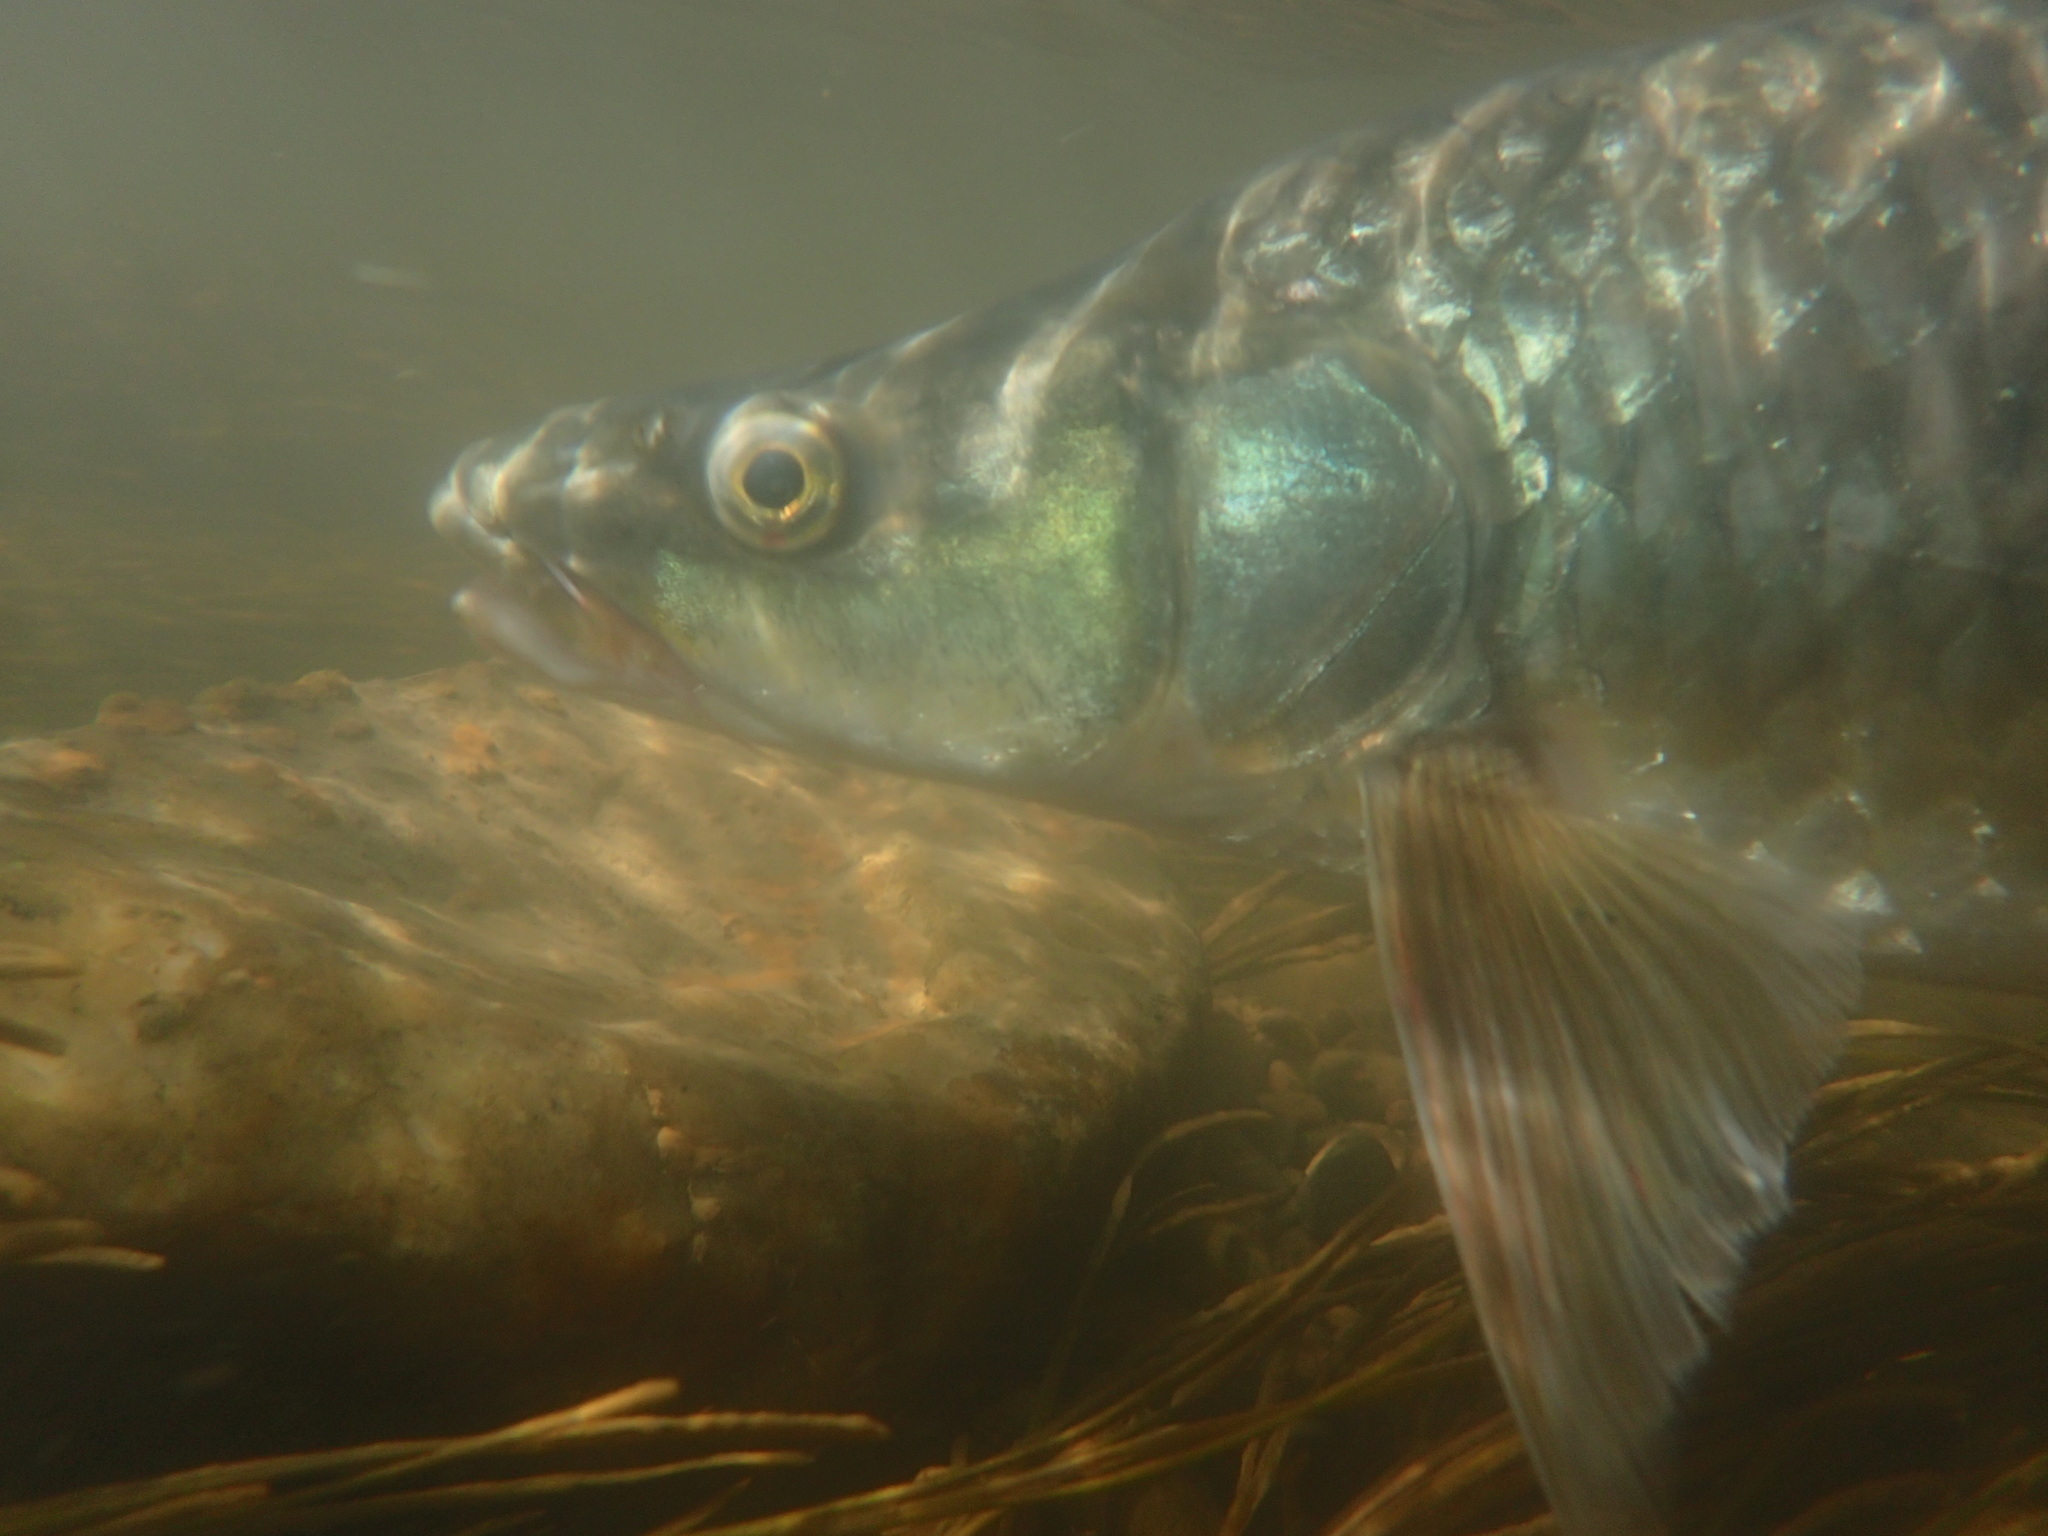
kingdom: Animalia
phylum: Chordata
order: Cypriniformes
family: Cyprinidae
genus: Labeobarbus
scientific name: Labeobarbus kimberleyensis
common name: Largemouth yellowfish
